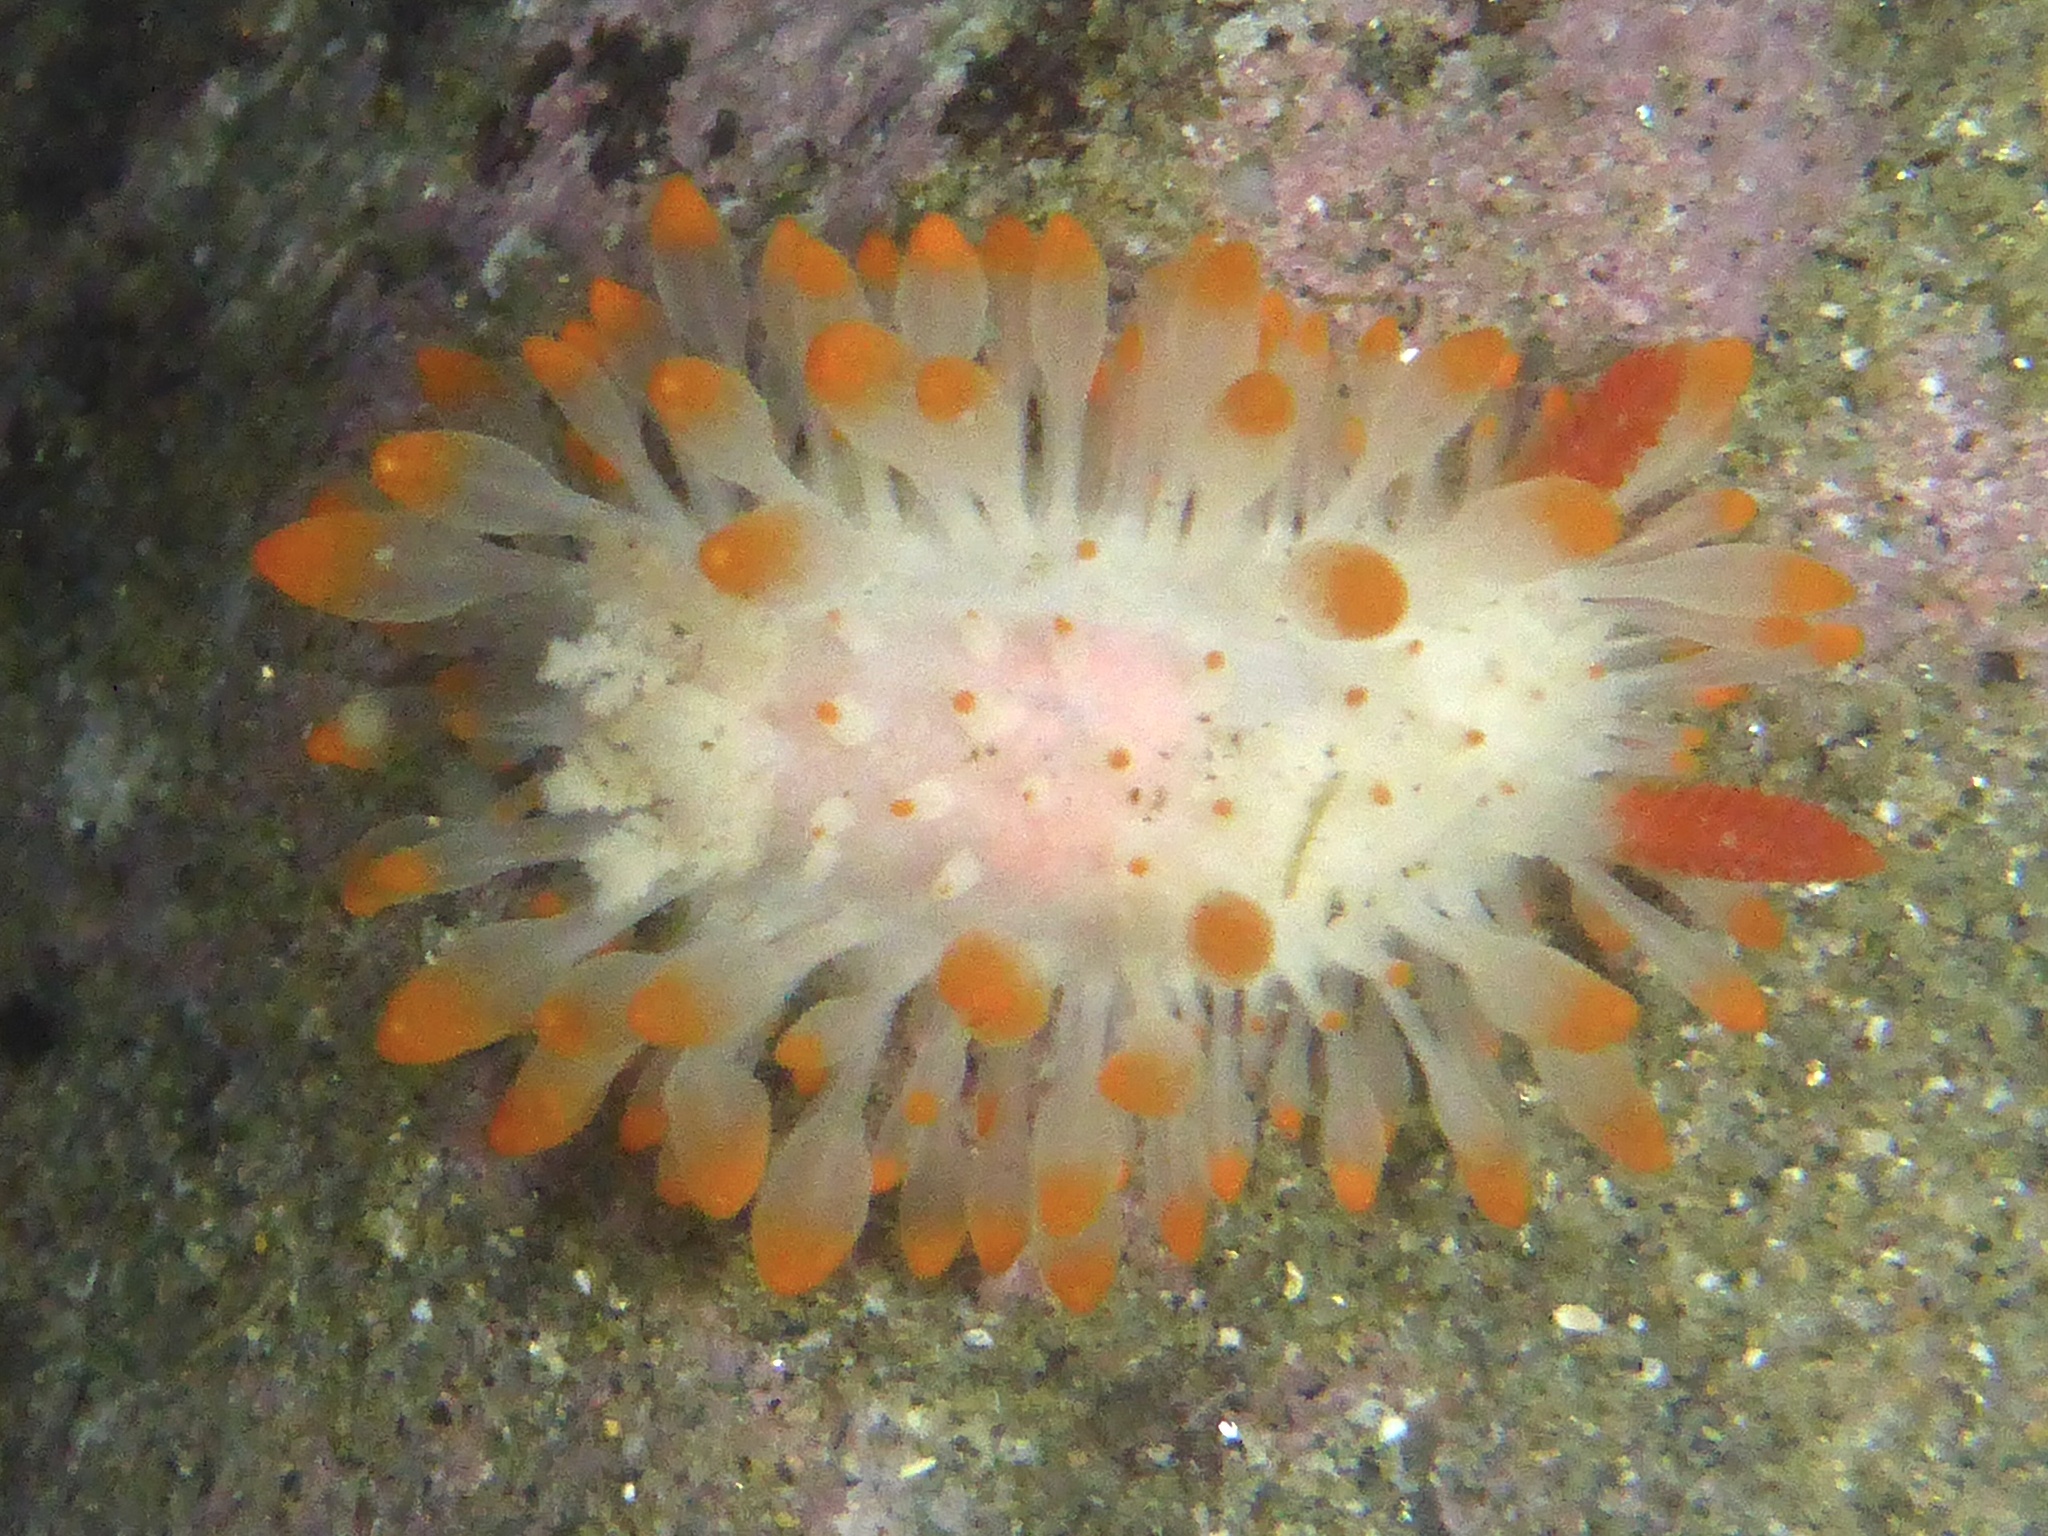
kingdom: Animalia
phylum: Mollusca
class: Gastropoda
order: Nudibranchia
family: Polyceridae
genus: Limacia
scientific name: Limacia cockerelli
